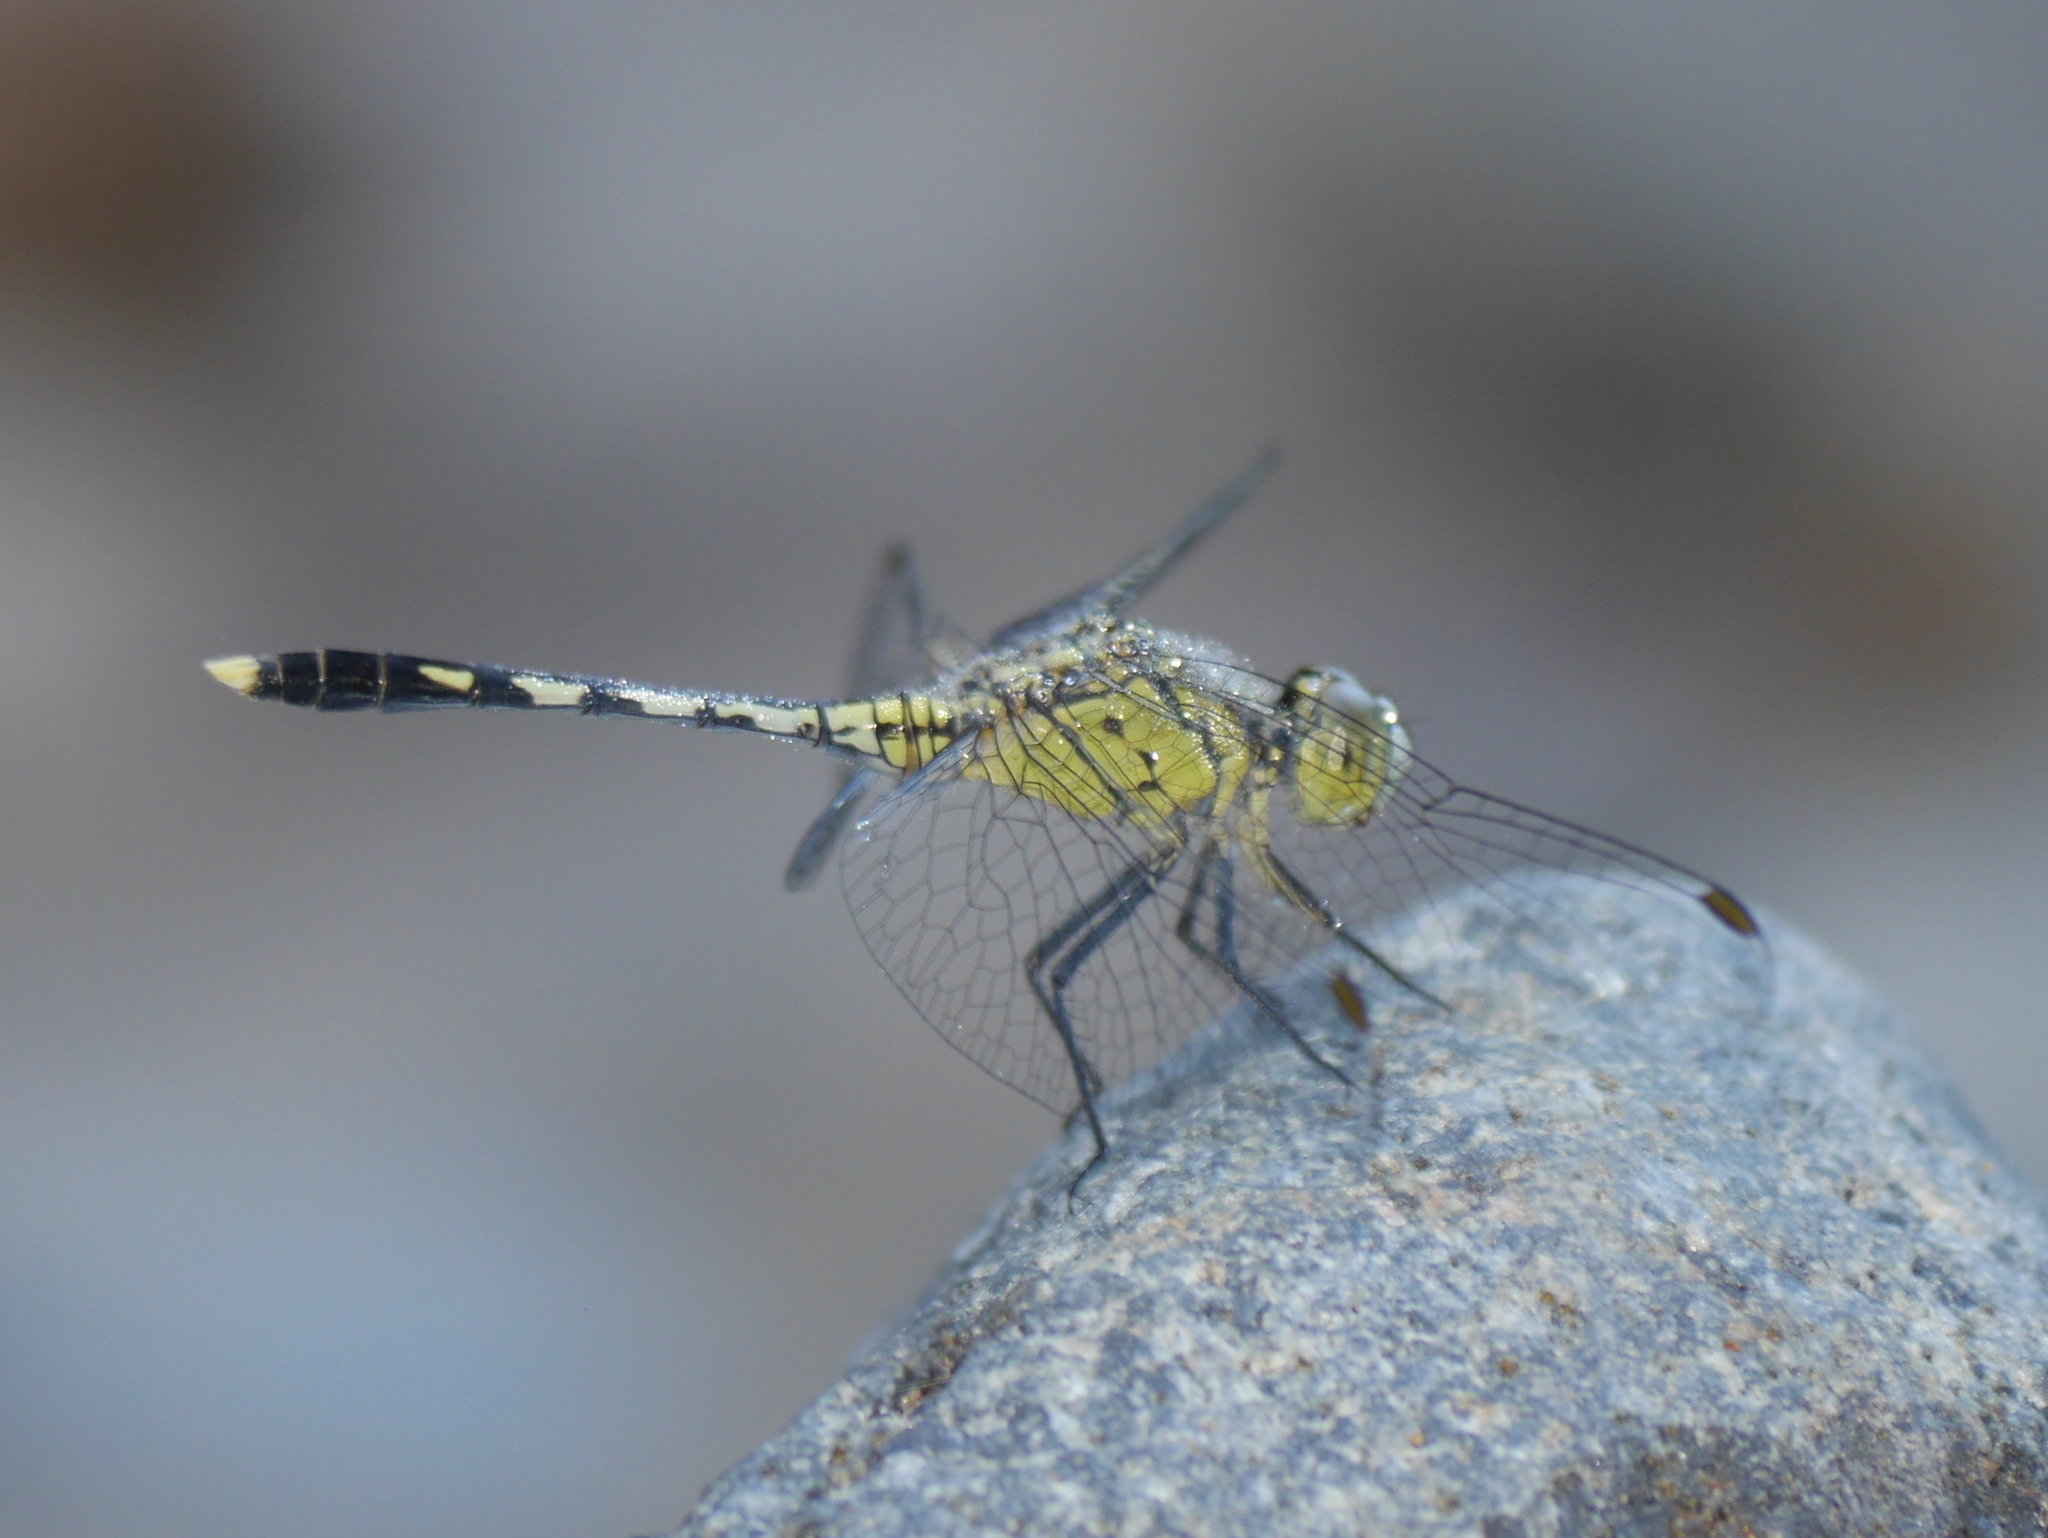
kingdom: Animalia
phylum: Arthropoda
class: Insecta
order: Odonata
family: Libellulidae
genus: Diplacodes
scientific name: Diplacodes trivialis
